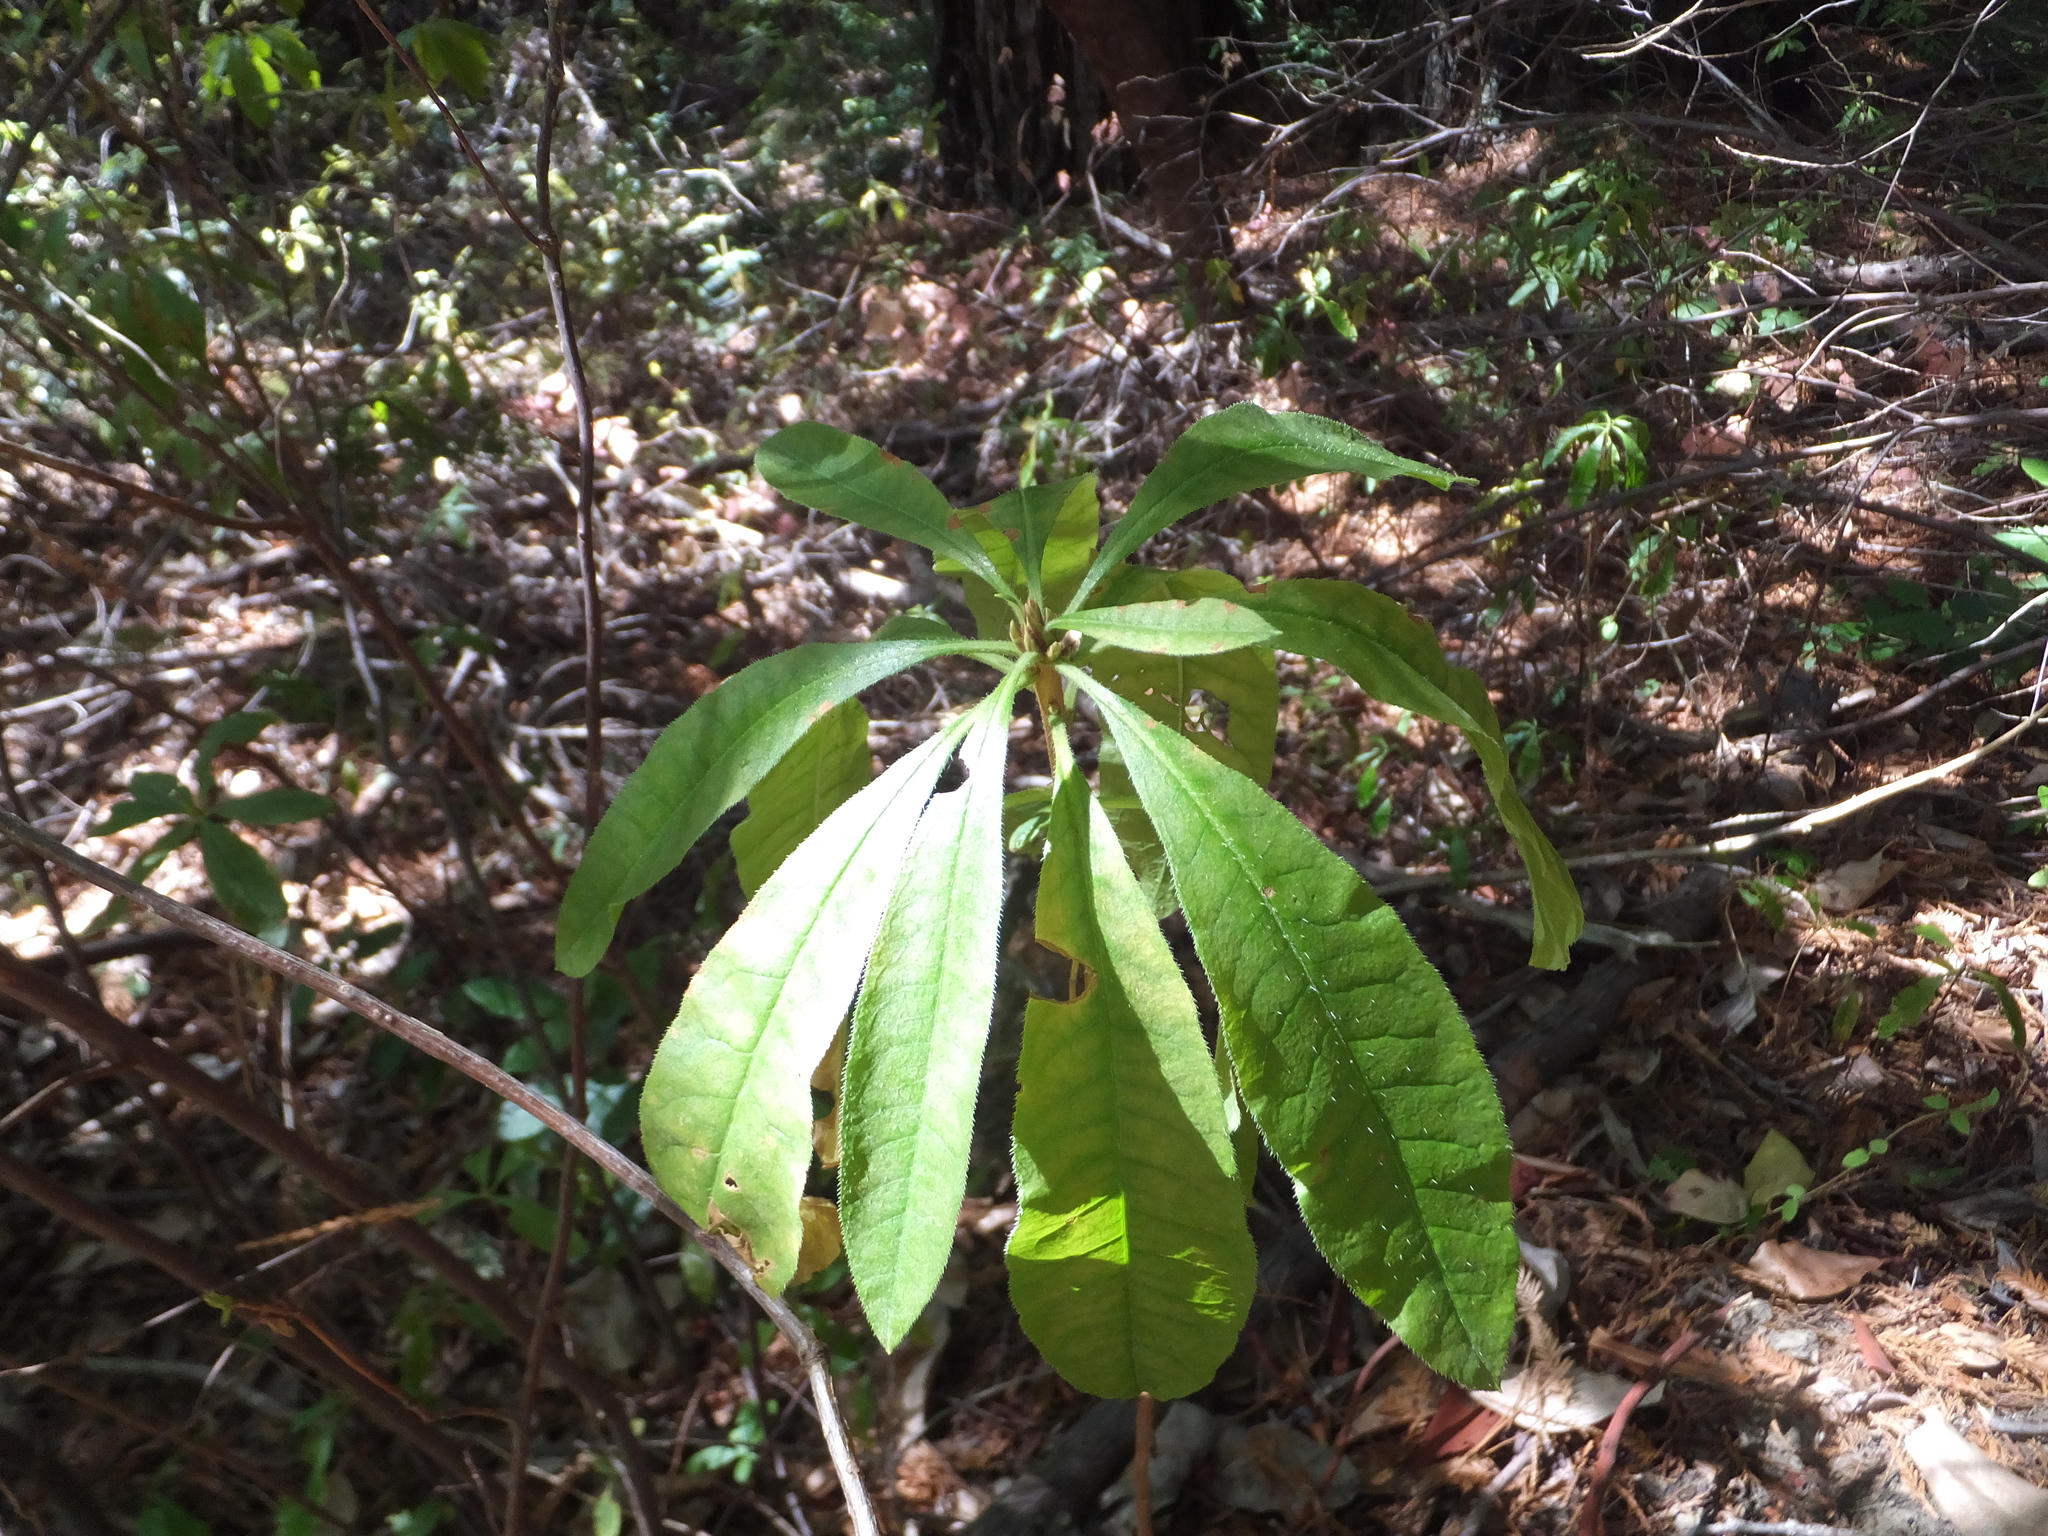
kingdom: Plantae
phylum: Tracheophyta
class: Magnoliopsida
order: Ericales
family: Ericaceae
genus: Rhododendron
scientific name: Rhododendron occidentale
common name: Western azalea
